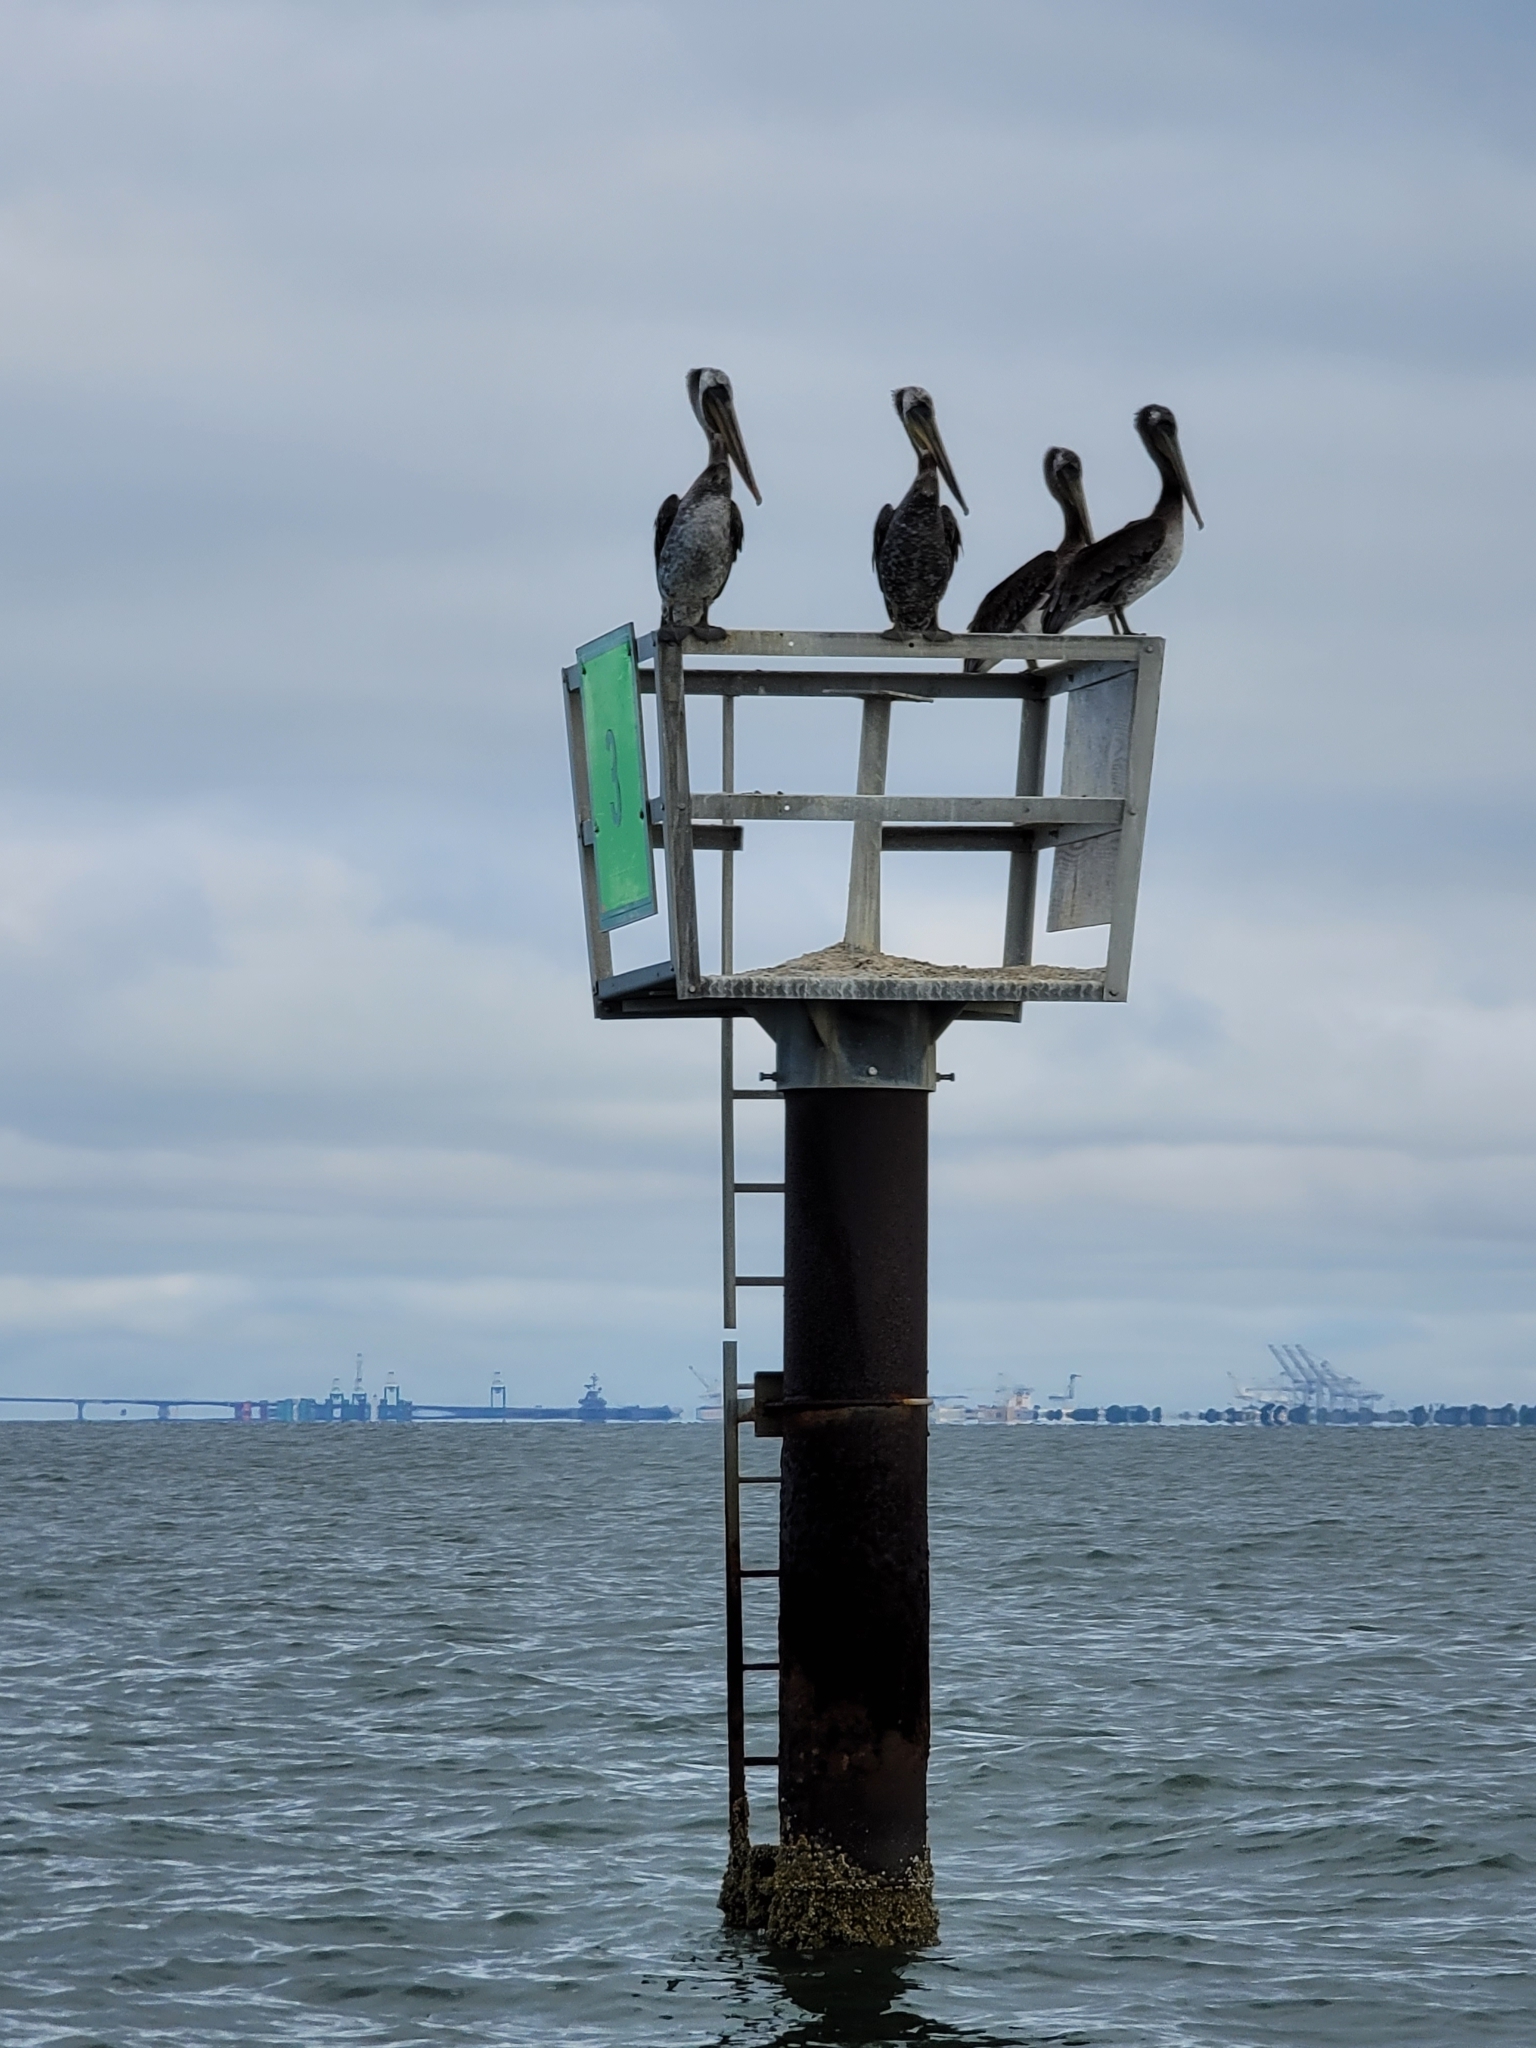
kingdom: Animalia
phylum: Chordata
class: Aves
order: Pelecaniformes
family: Pelecanidae
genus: Pelecanus
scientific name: Pelecanus occidentalis
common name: Brown pelican
